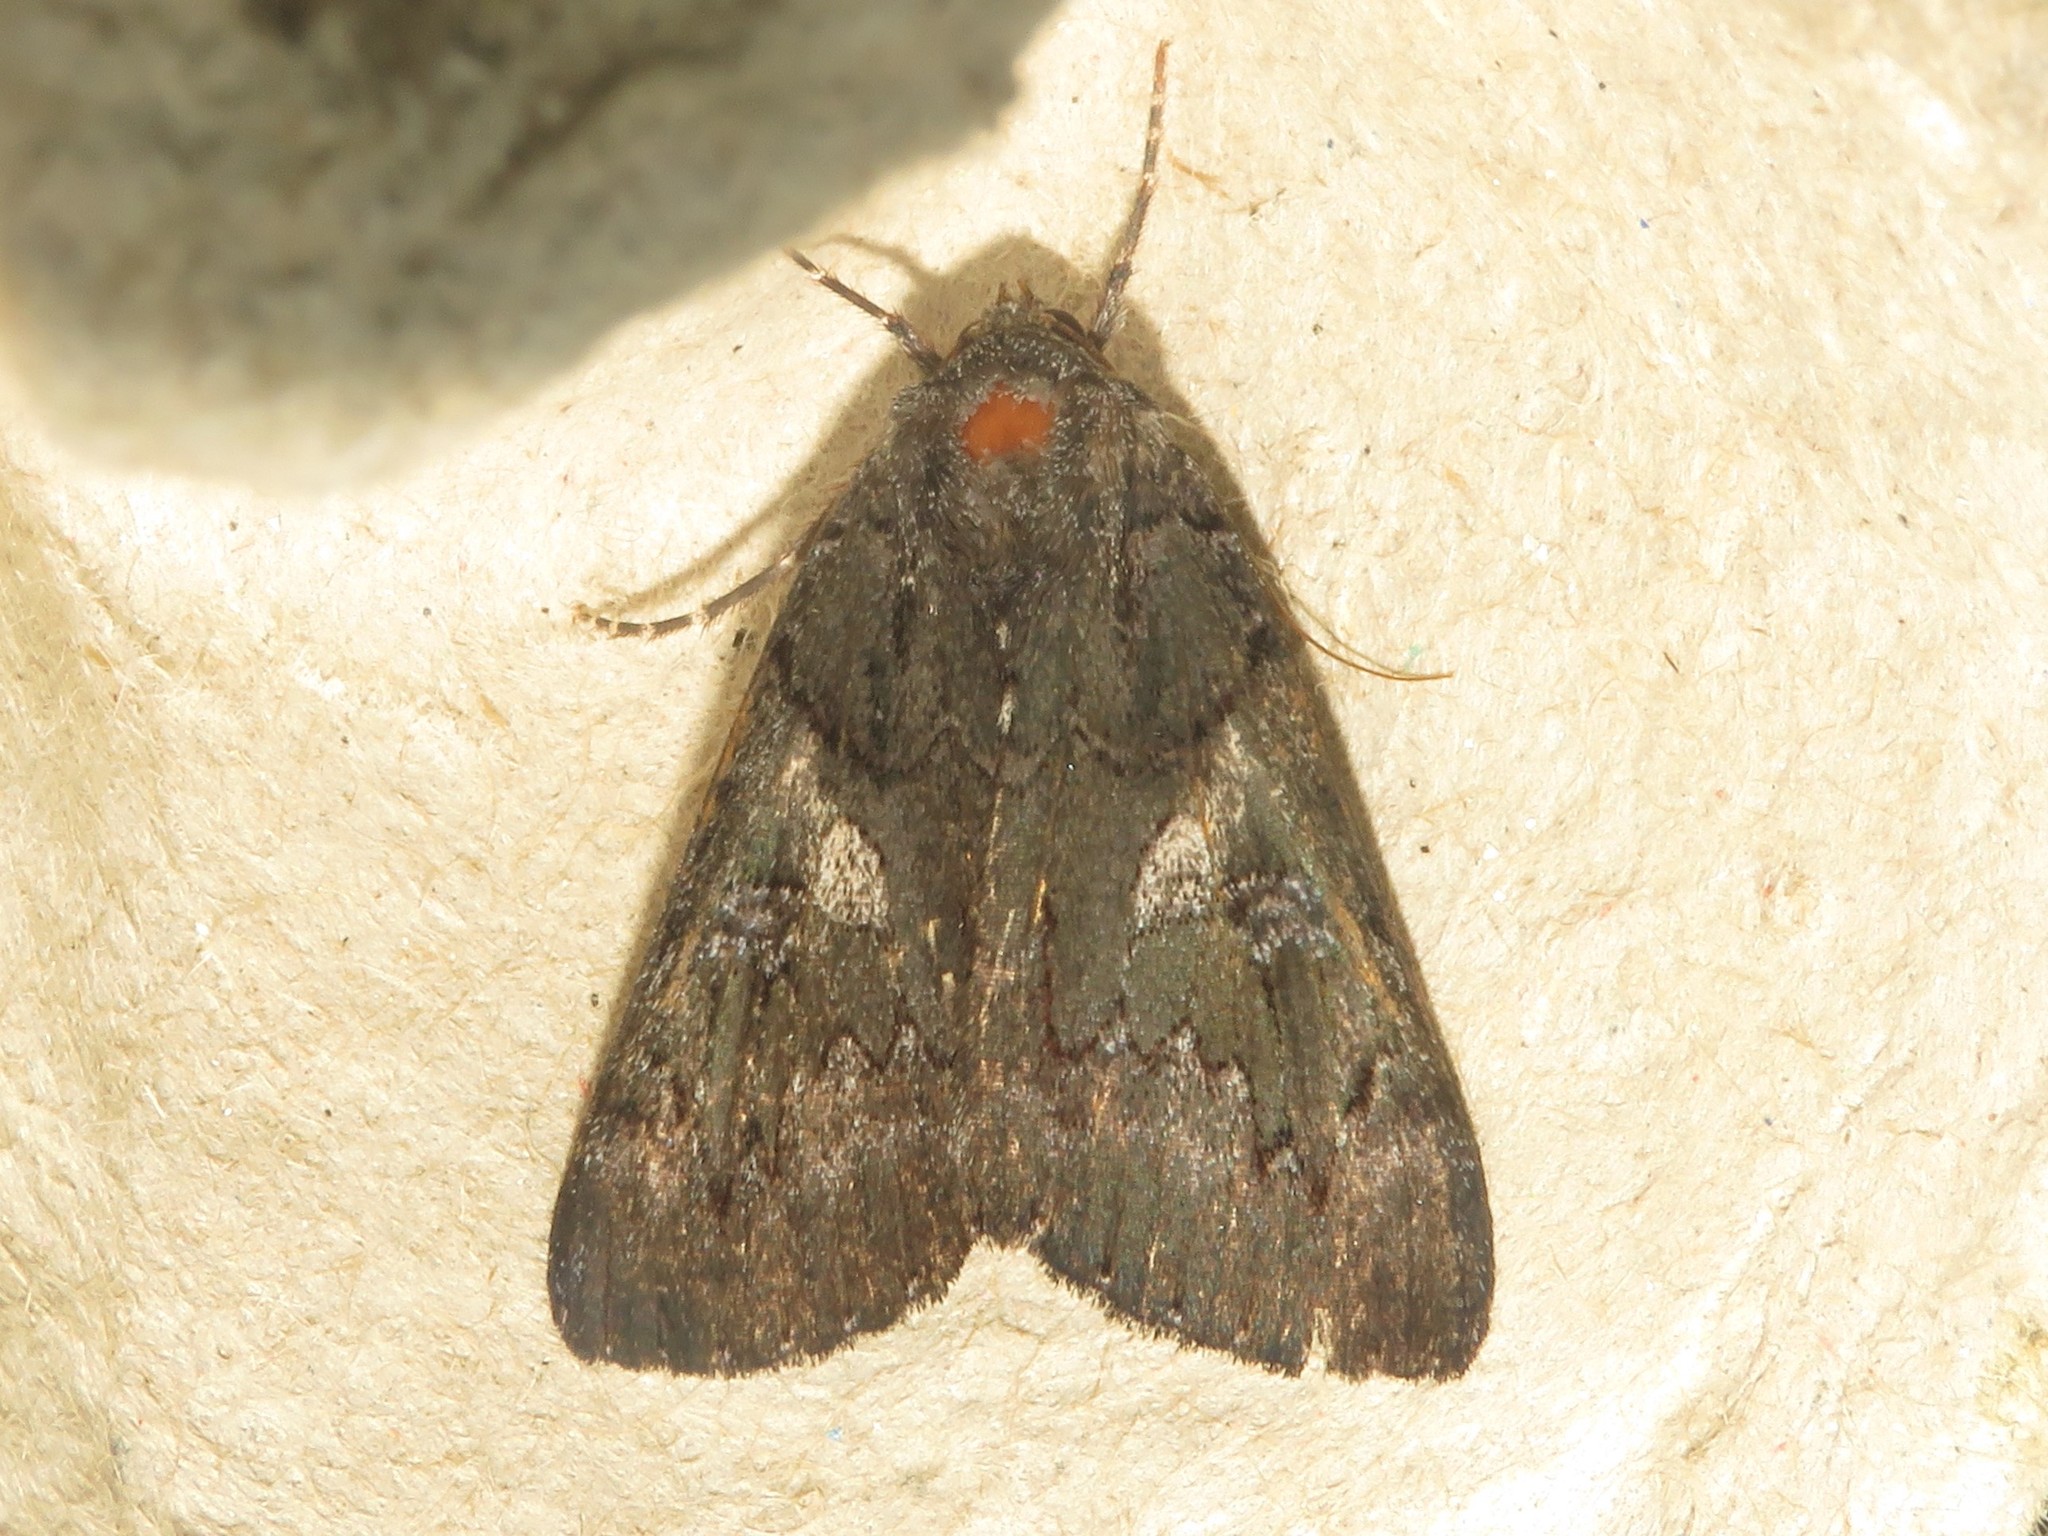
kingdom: Animalia
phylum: Arthropoda
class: Insecta
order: Lepidoptera
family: Erebidae
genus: Catocala
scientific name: Catocala antinympha
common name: Sweetfern underwing
